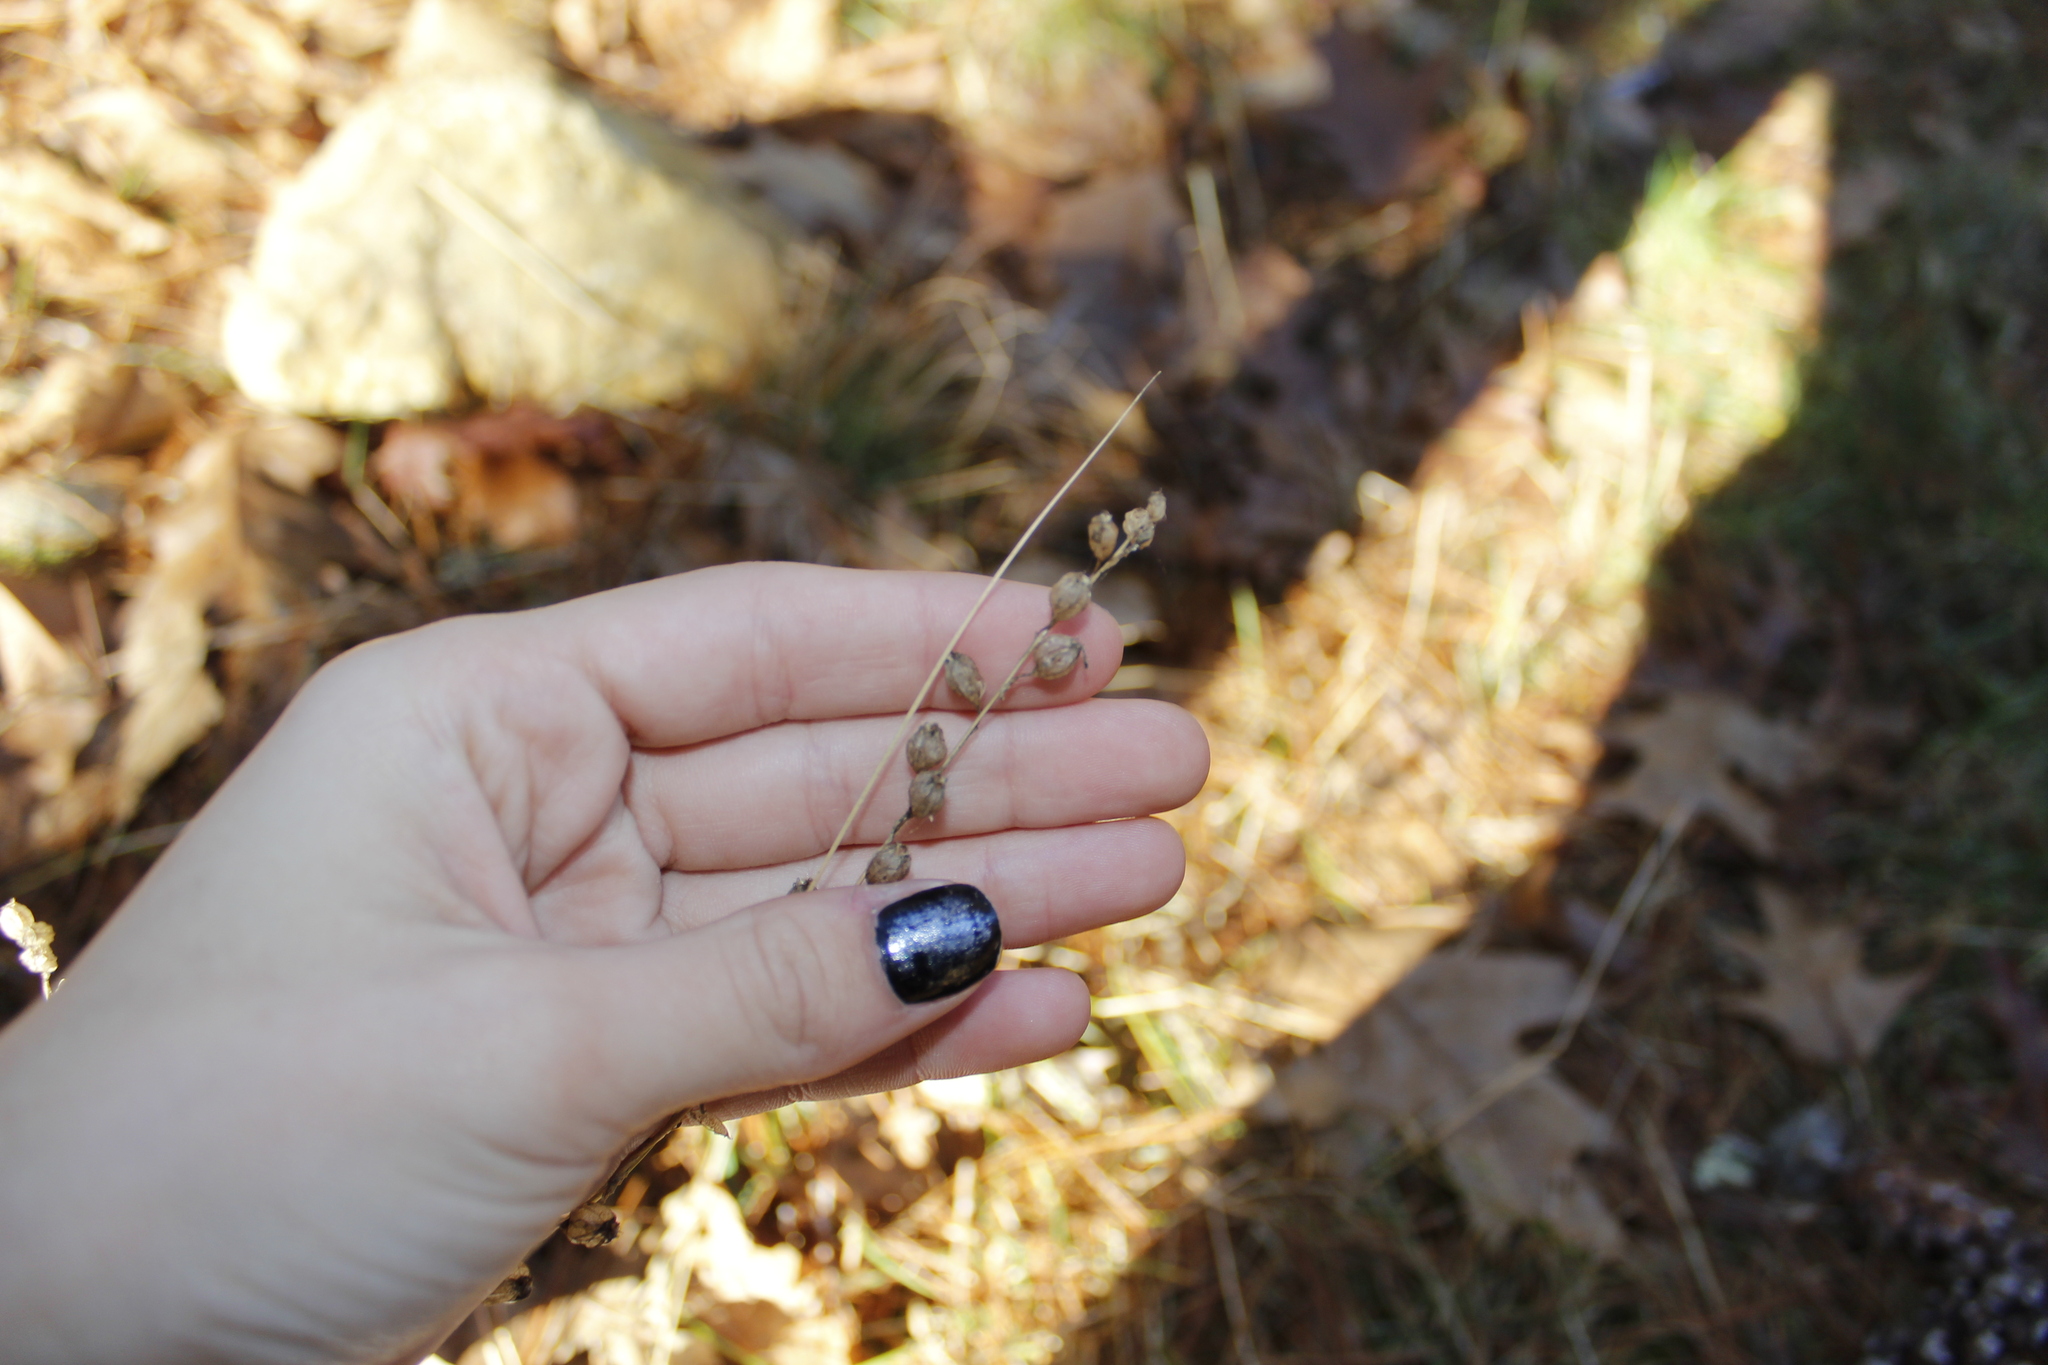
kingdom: Plantae
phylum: Tracheophyta
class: Magnoliopsida
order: Asterales
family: Campanulaceae
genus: Lobelia
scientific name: Lobelia inflata
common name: Indian tobacco
